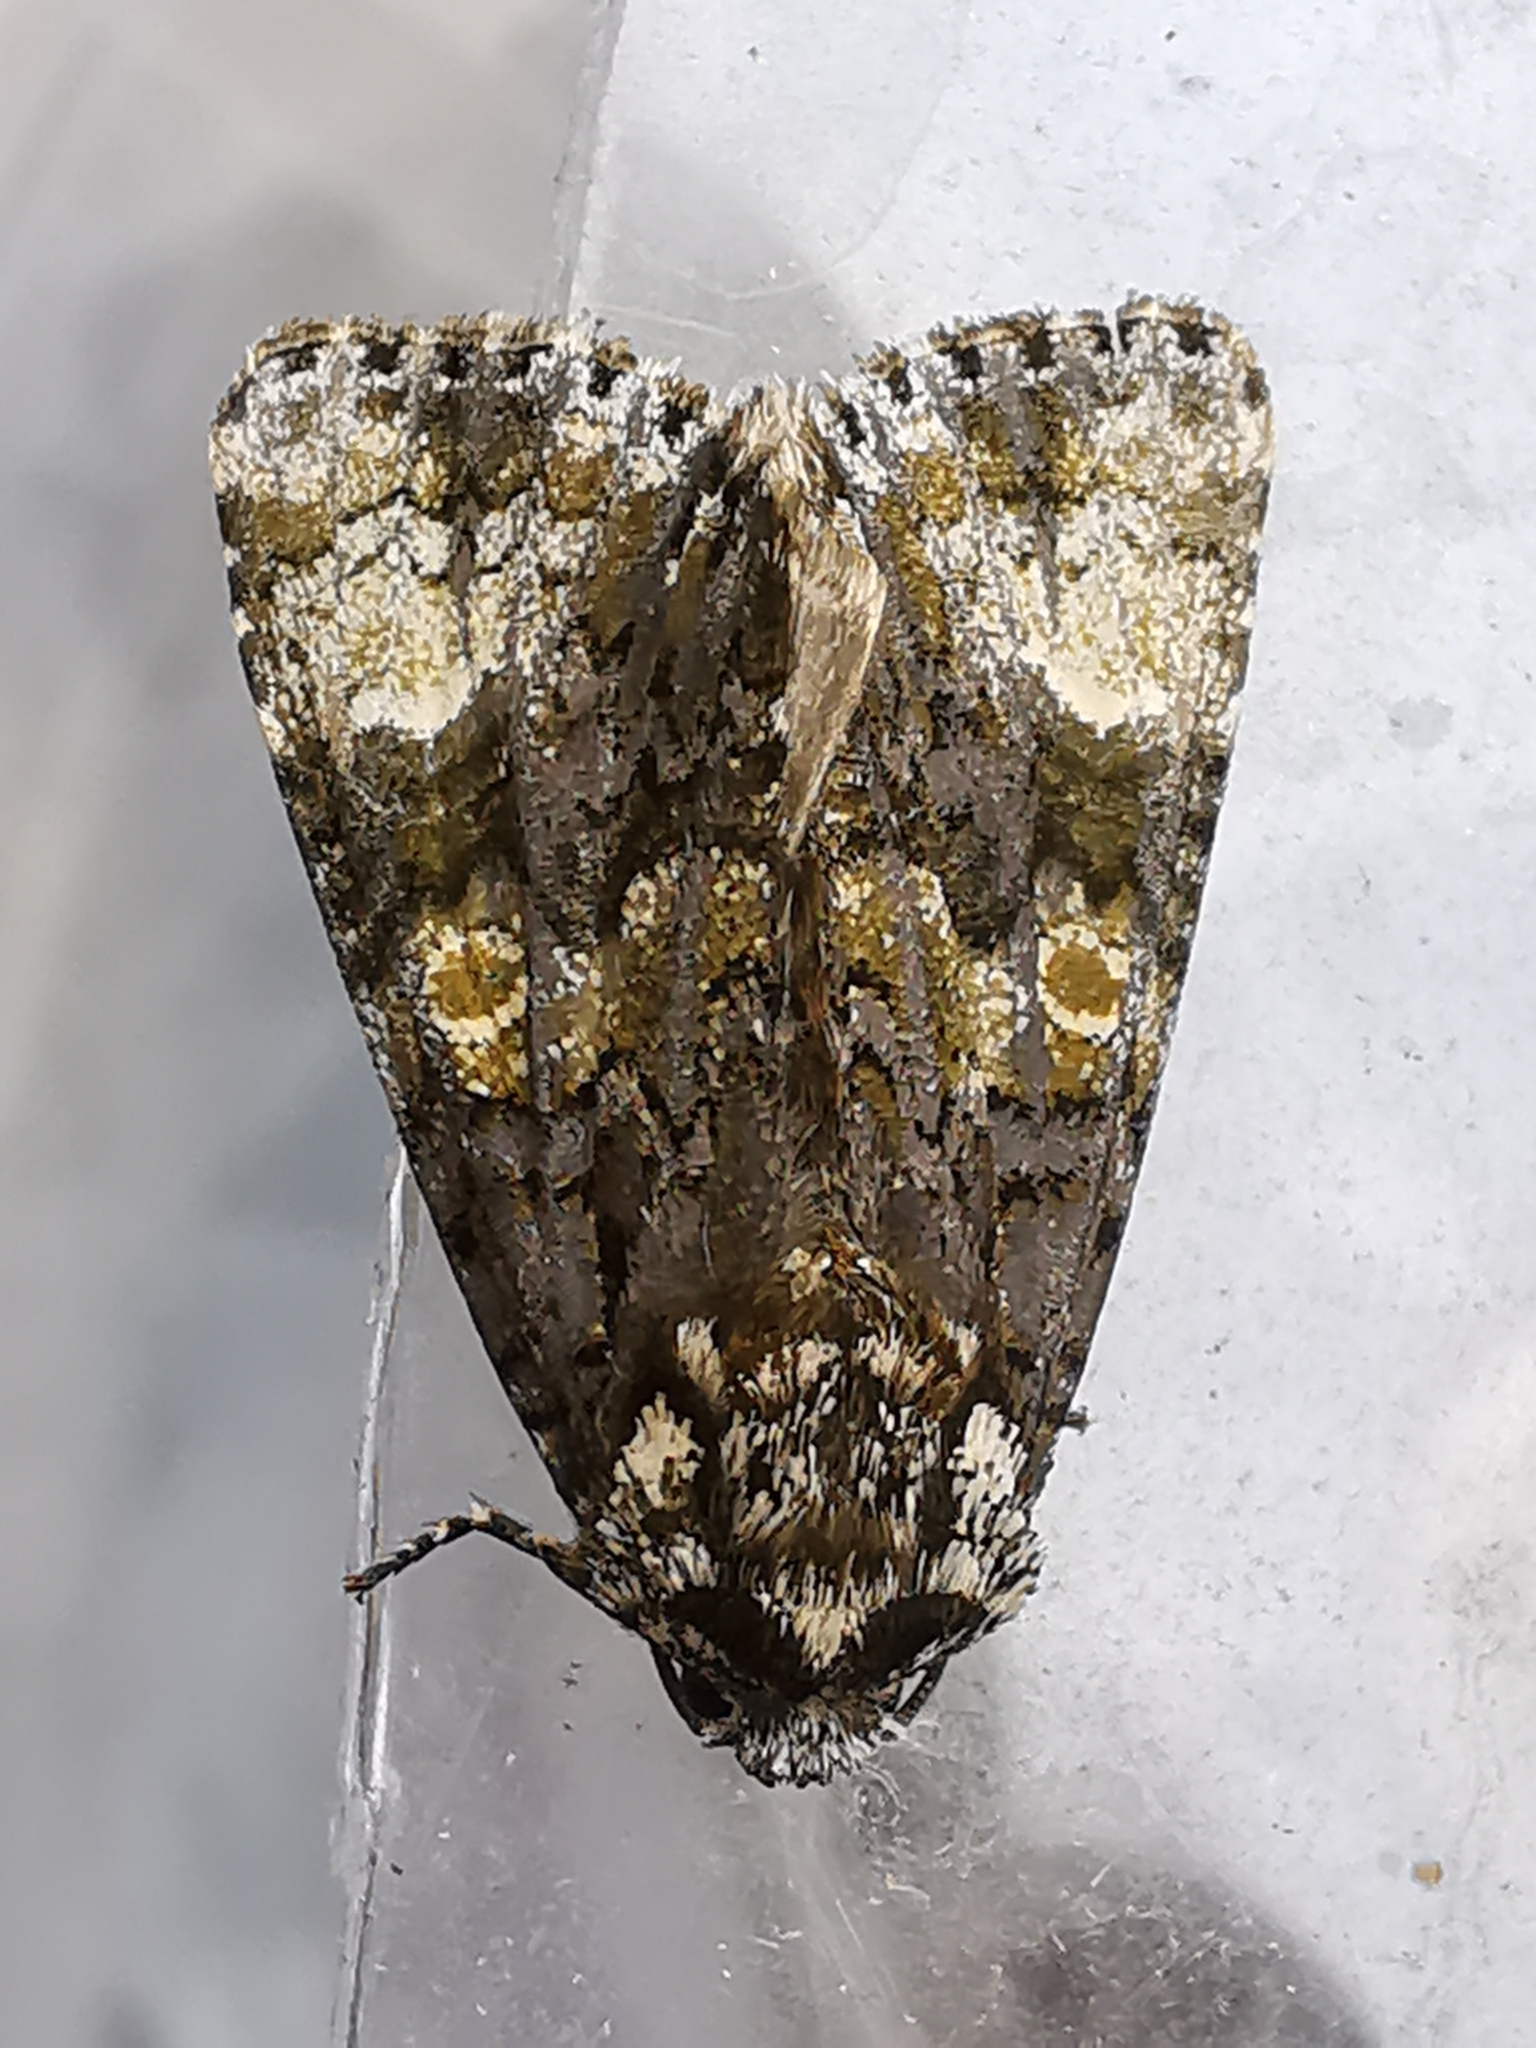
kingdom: Animalia
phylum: Arthropoda
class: Insecta
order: Lepidoptera
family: Noctuidae
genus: Craniophora
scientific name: Craniophora ligustri
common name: Coronet
